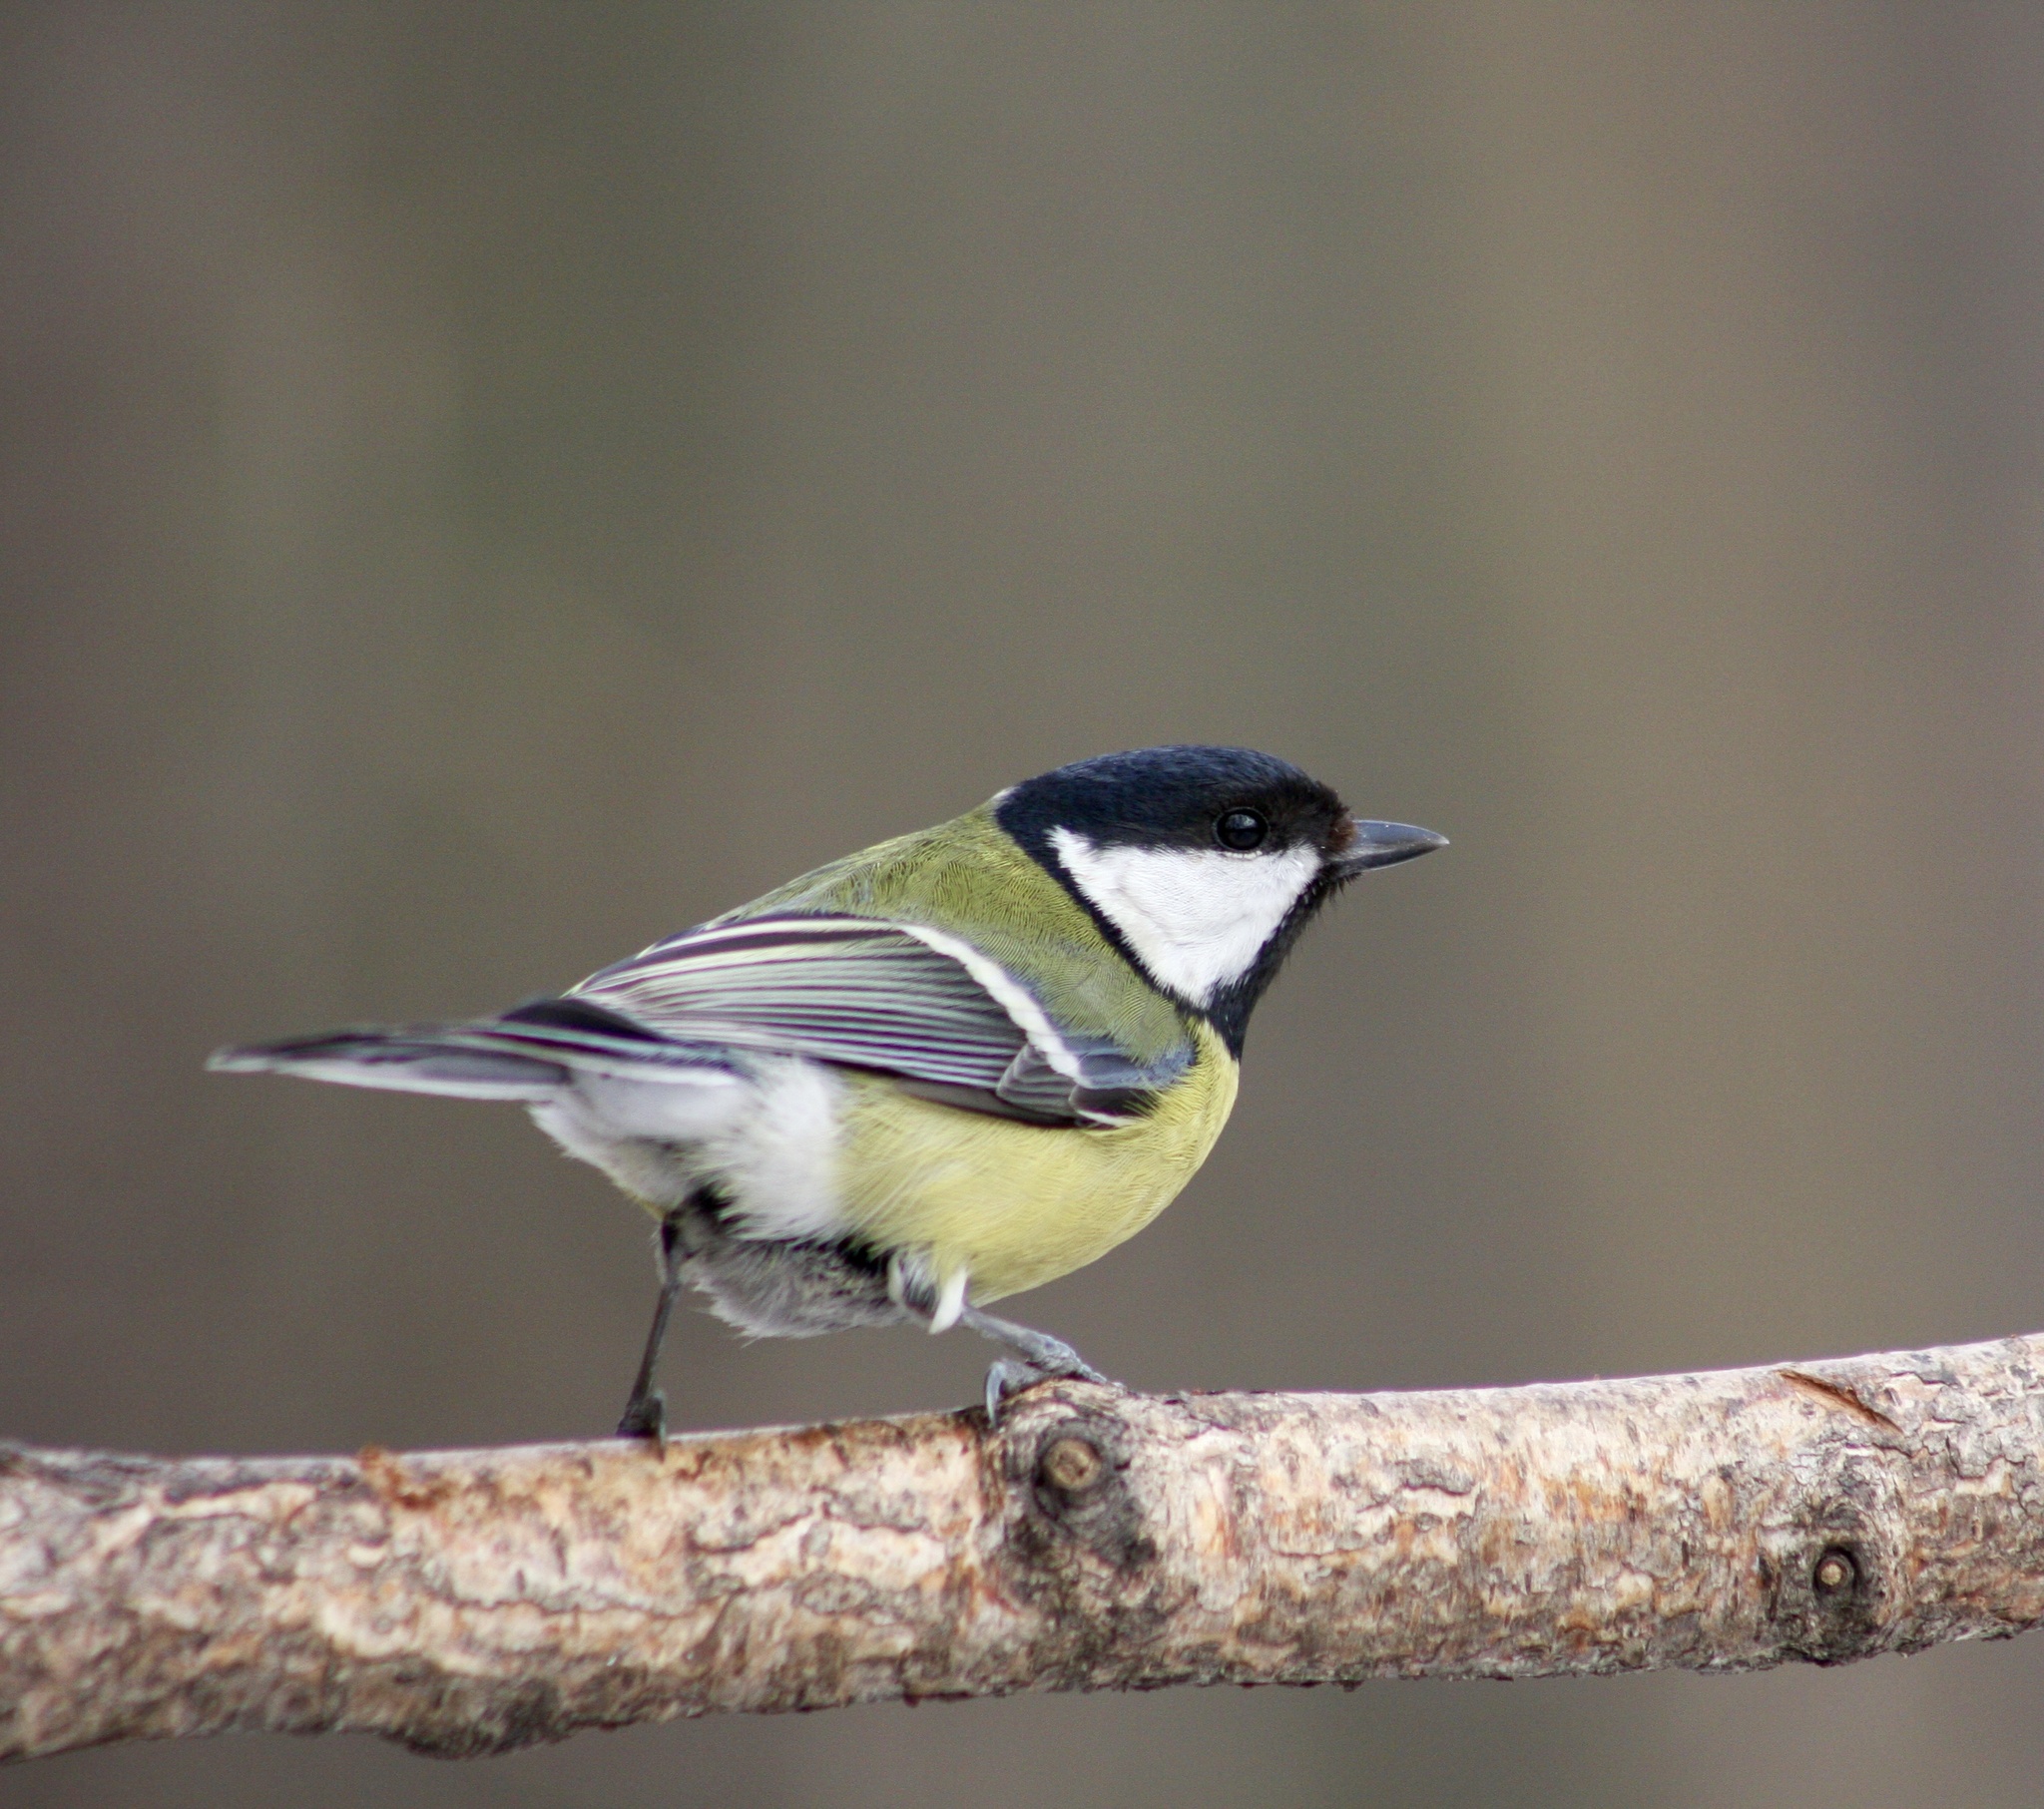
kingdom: Animalia
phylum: Chordata
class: Aves
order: Passeriformes
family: Paridae
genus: Parus
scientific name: Parus major
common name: Great tit
